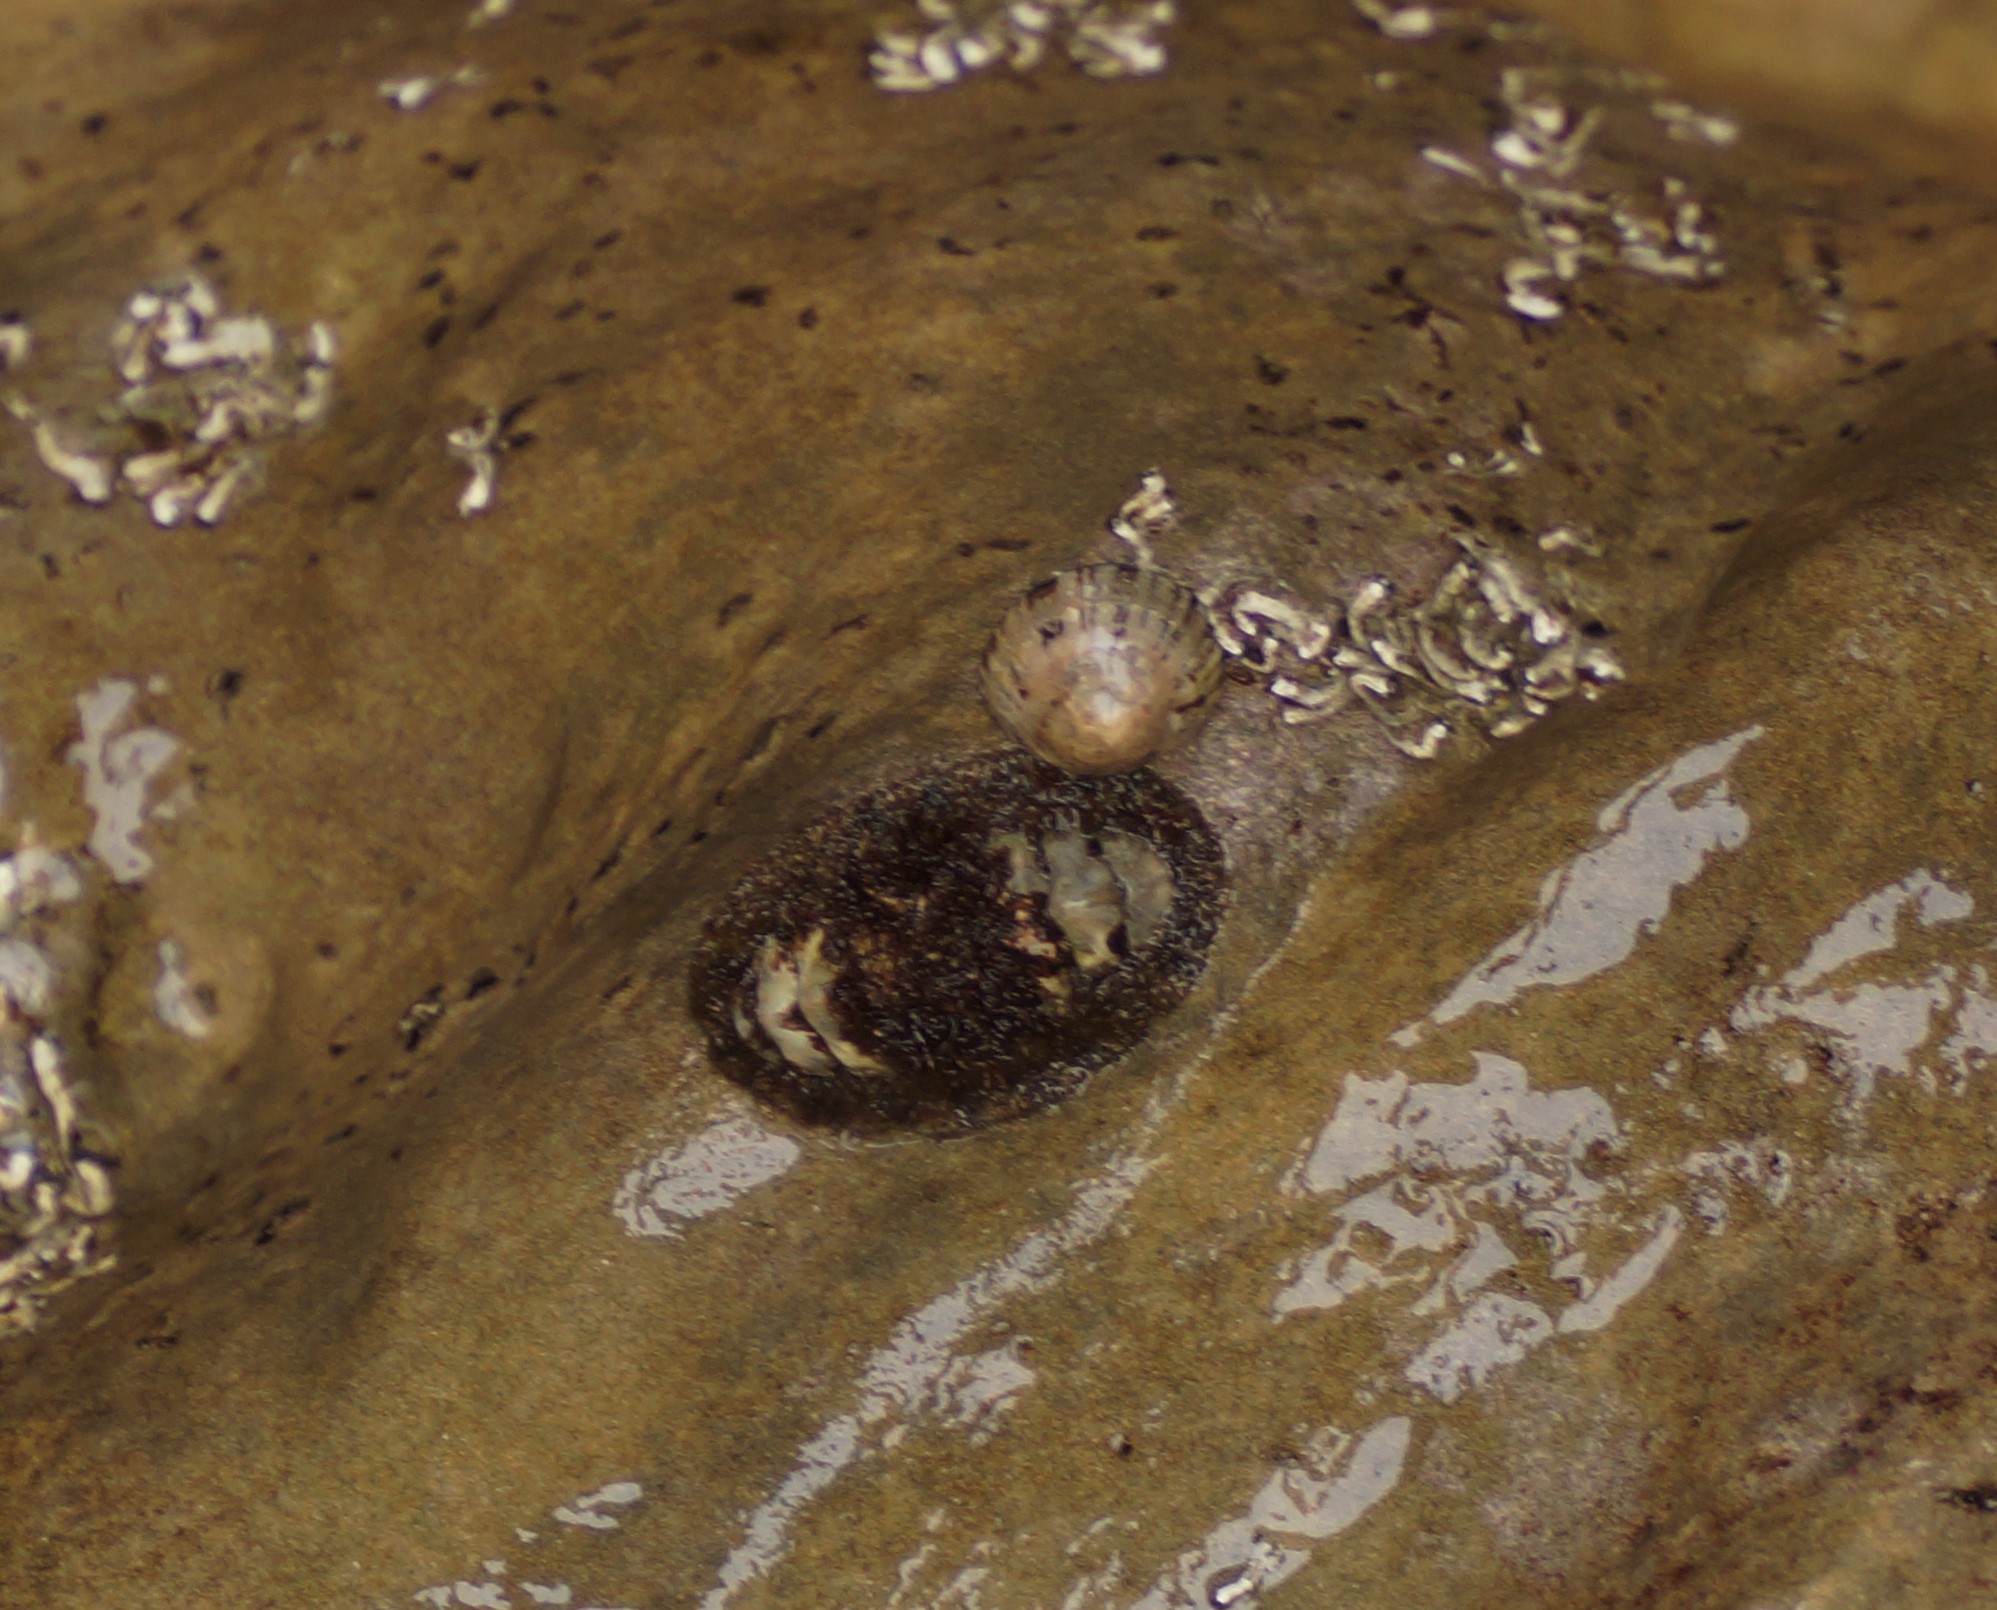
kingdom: Animalia
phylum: Mollusca
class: Polyplacophora
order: Chitonida
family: Mopaliidae
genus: Plaxiphora
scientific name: Plaxiphora albida
